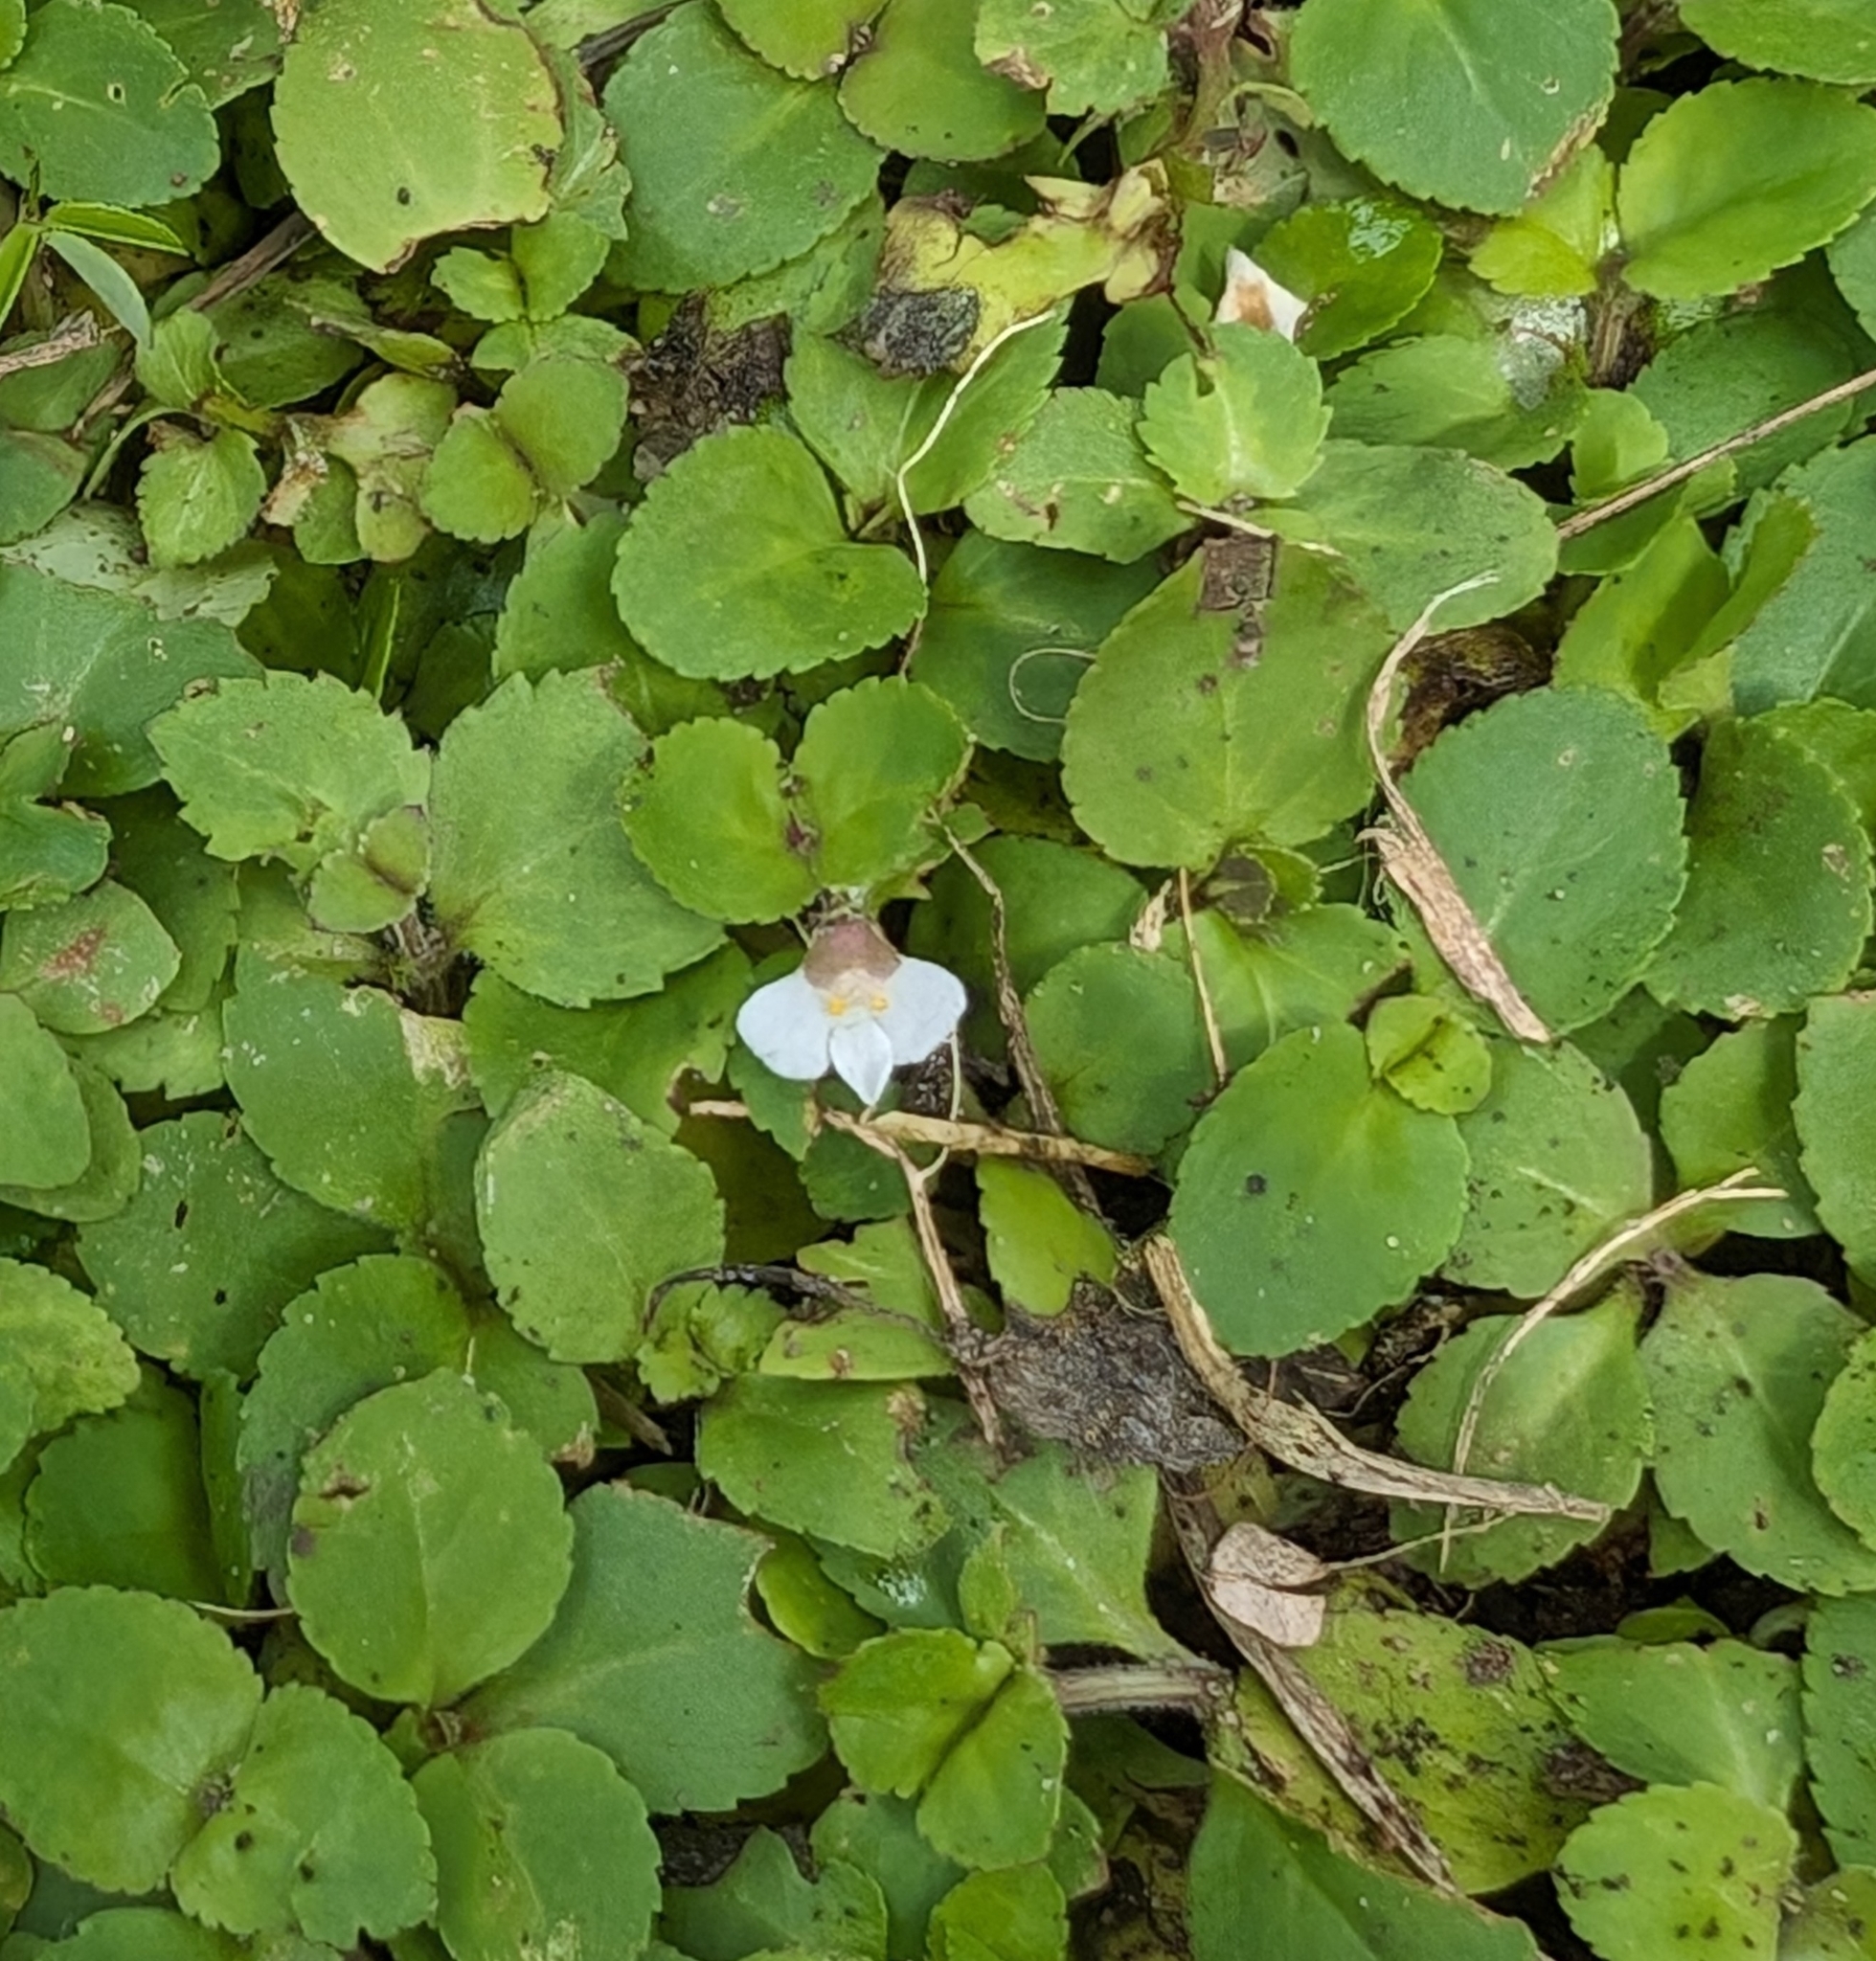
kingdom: Plantae
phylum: Tracheophyta
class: Magnoliopsida
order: Lamiales
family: Linderniaceae
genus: Vandellia
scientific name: Vandellia diffusa
